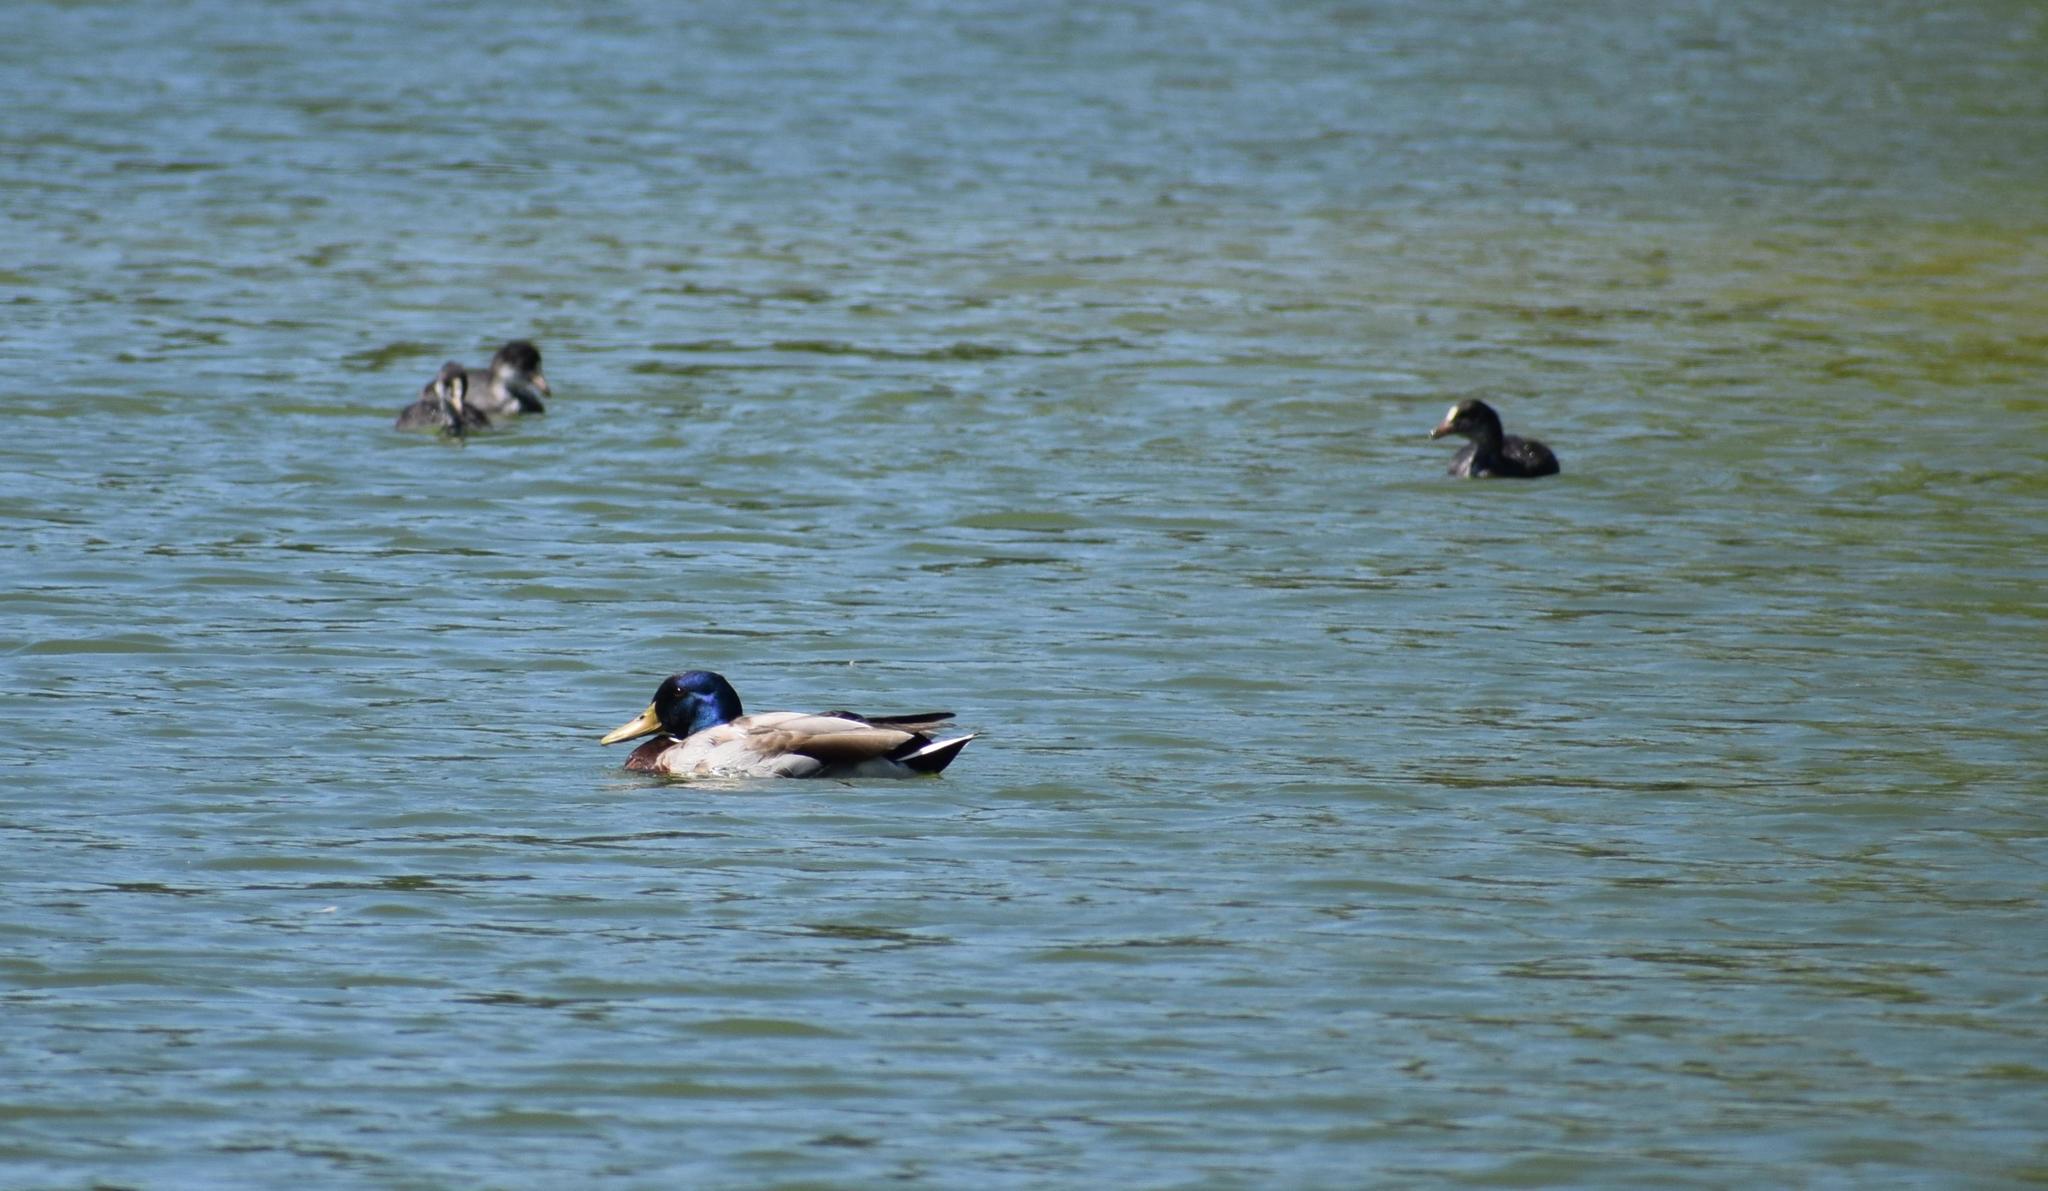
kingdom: Animalia
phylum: Chordata
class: Aves
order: Gruiformes
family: Rallidae
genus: Fulica
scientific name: Fulica atra
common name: Eurasian coot
